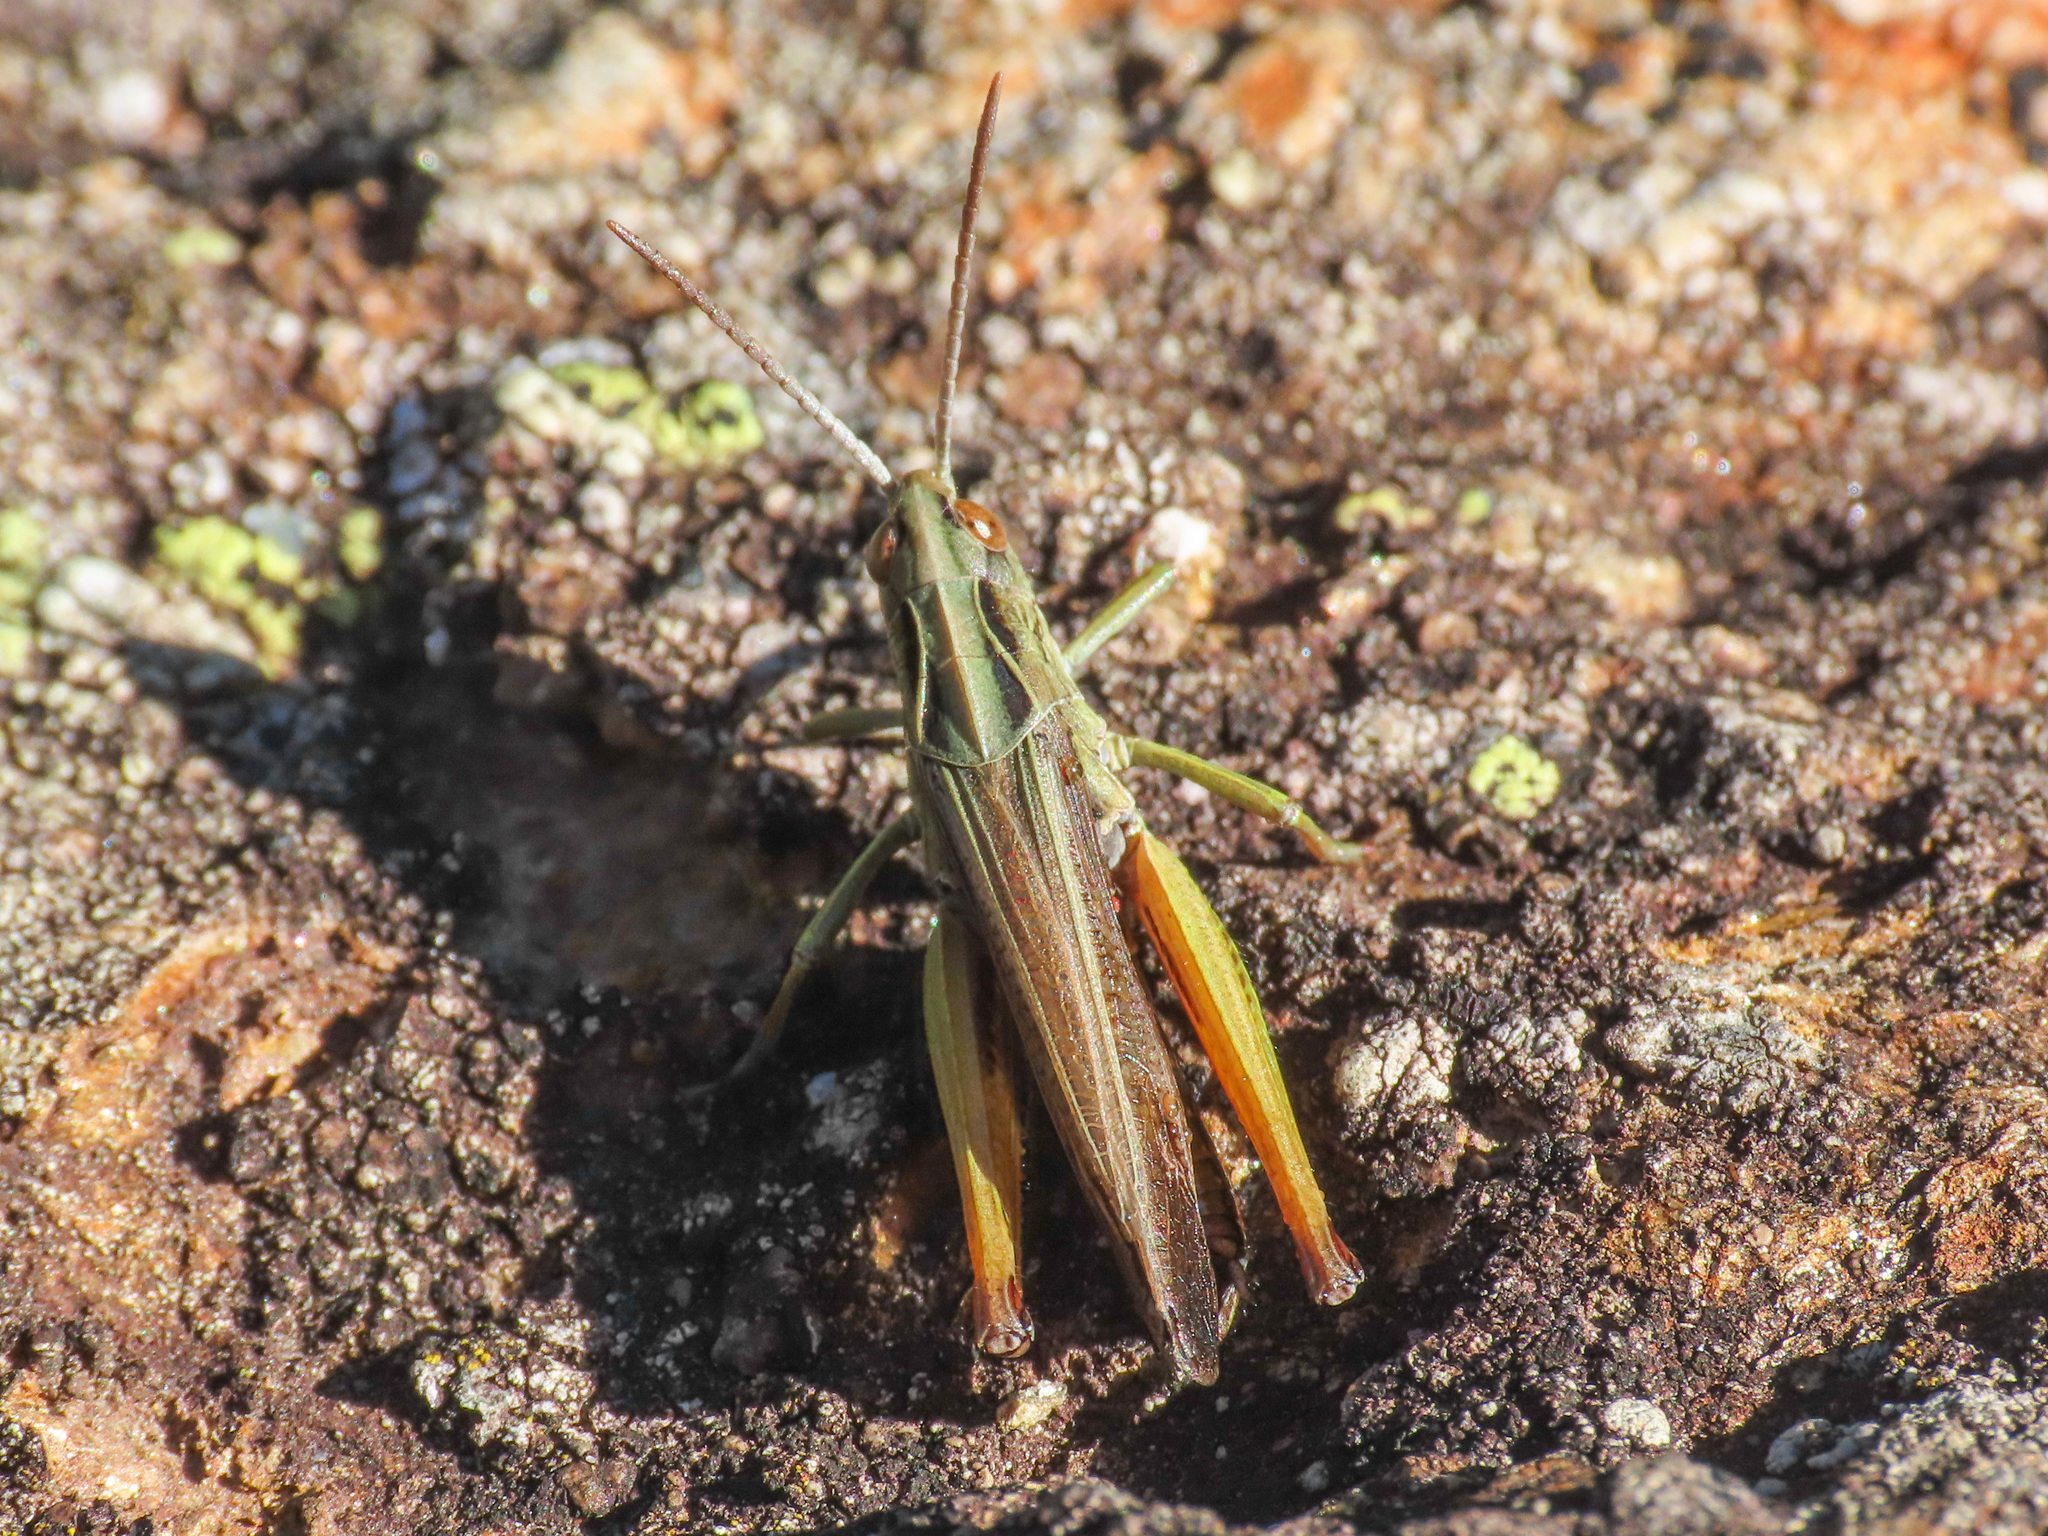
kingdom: Animalia
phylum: Arthropoda
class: Insecta
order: Orthoptera
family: Acrididae
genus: Omocestus
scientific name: Omocestus viridulus
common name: Common green grasshopper
